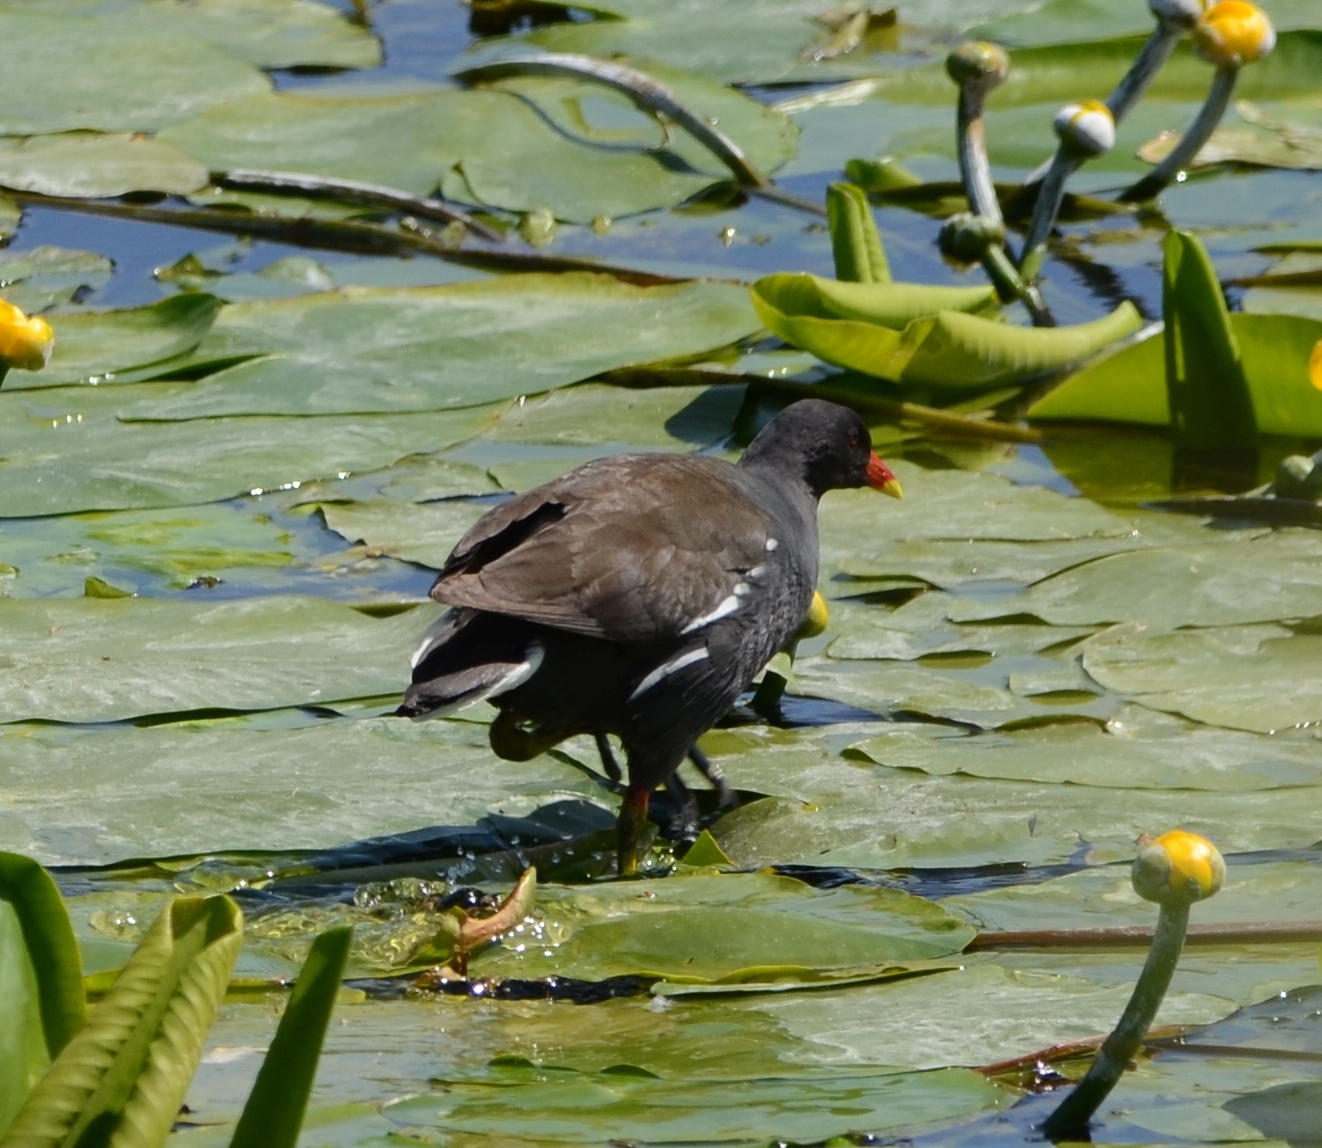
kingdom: Animalia
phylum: Chordata
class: Aves
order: Gruiformes
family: Rallidae
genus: Gallinula
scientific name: Gallinula chloropus
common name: Common moorhen
